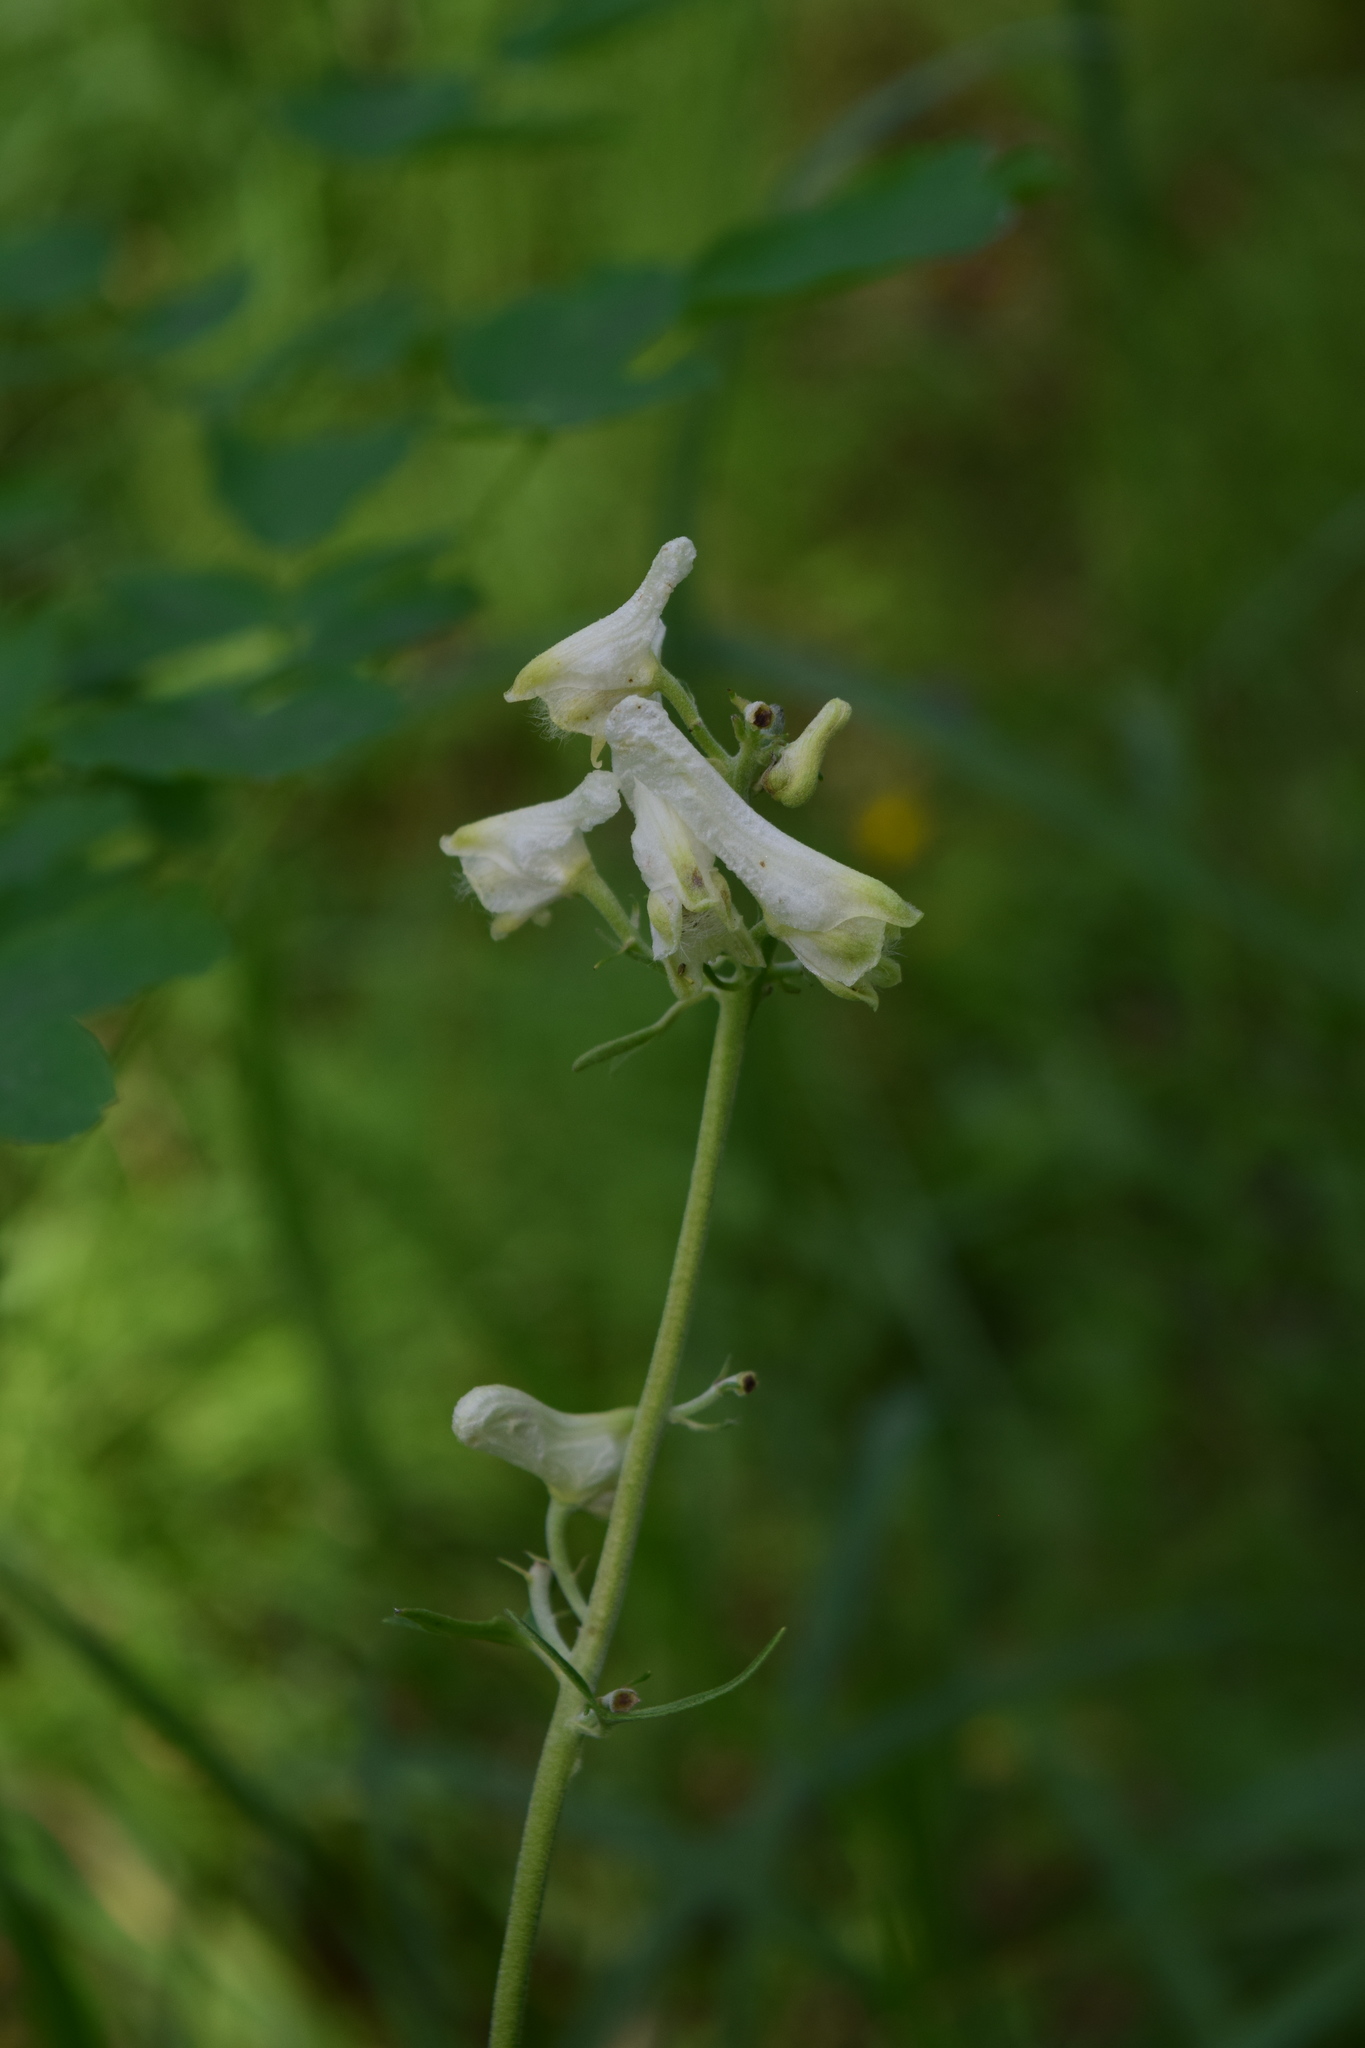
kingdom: Plantae
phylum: Tracheophyta
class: Magnoliopsida
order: Ranunculales
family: Ranunculaceae
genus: Aconitum
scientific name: Aconitum lasiostomum
